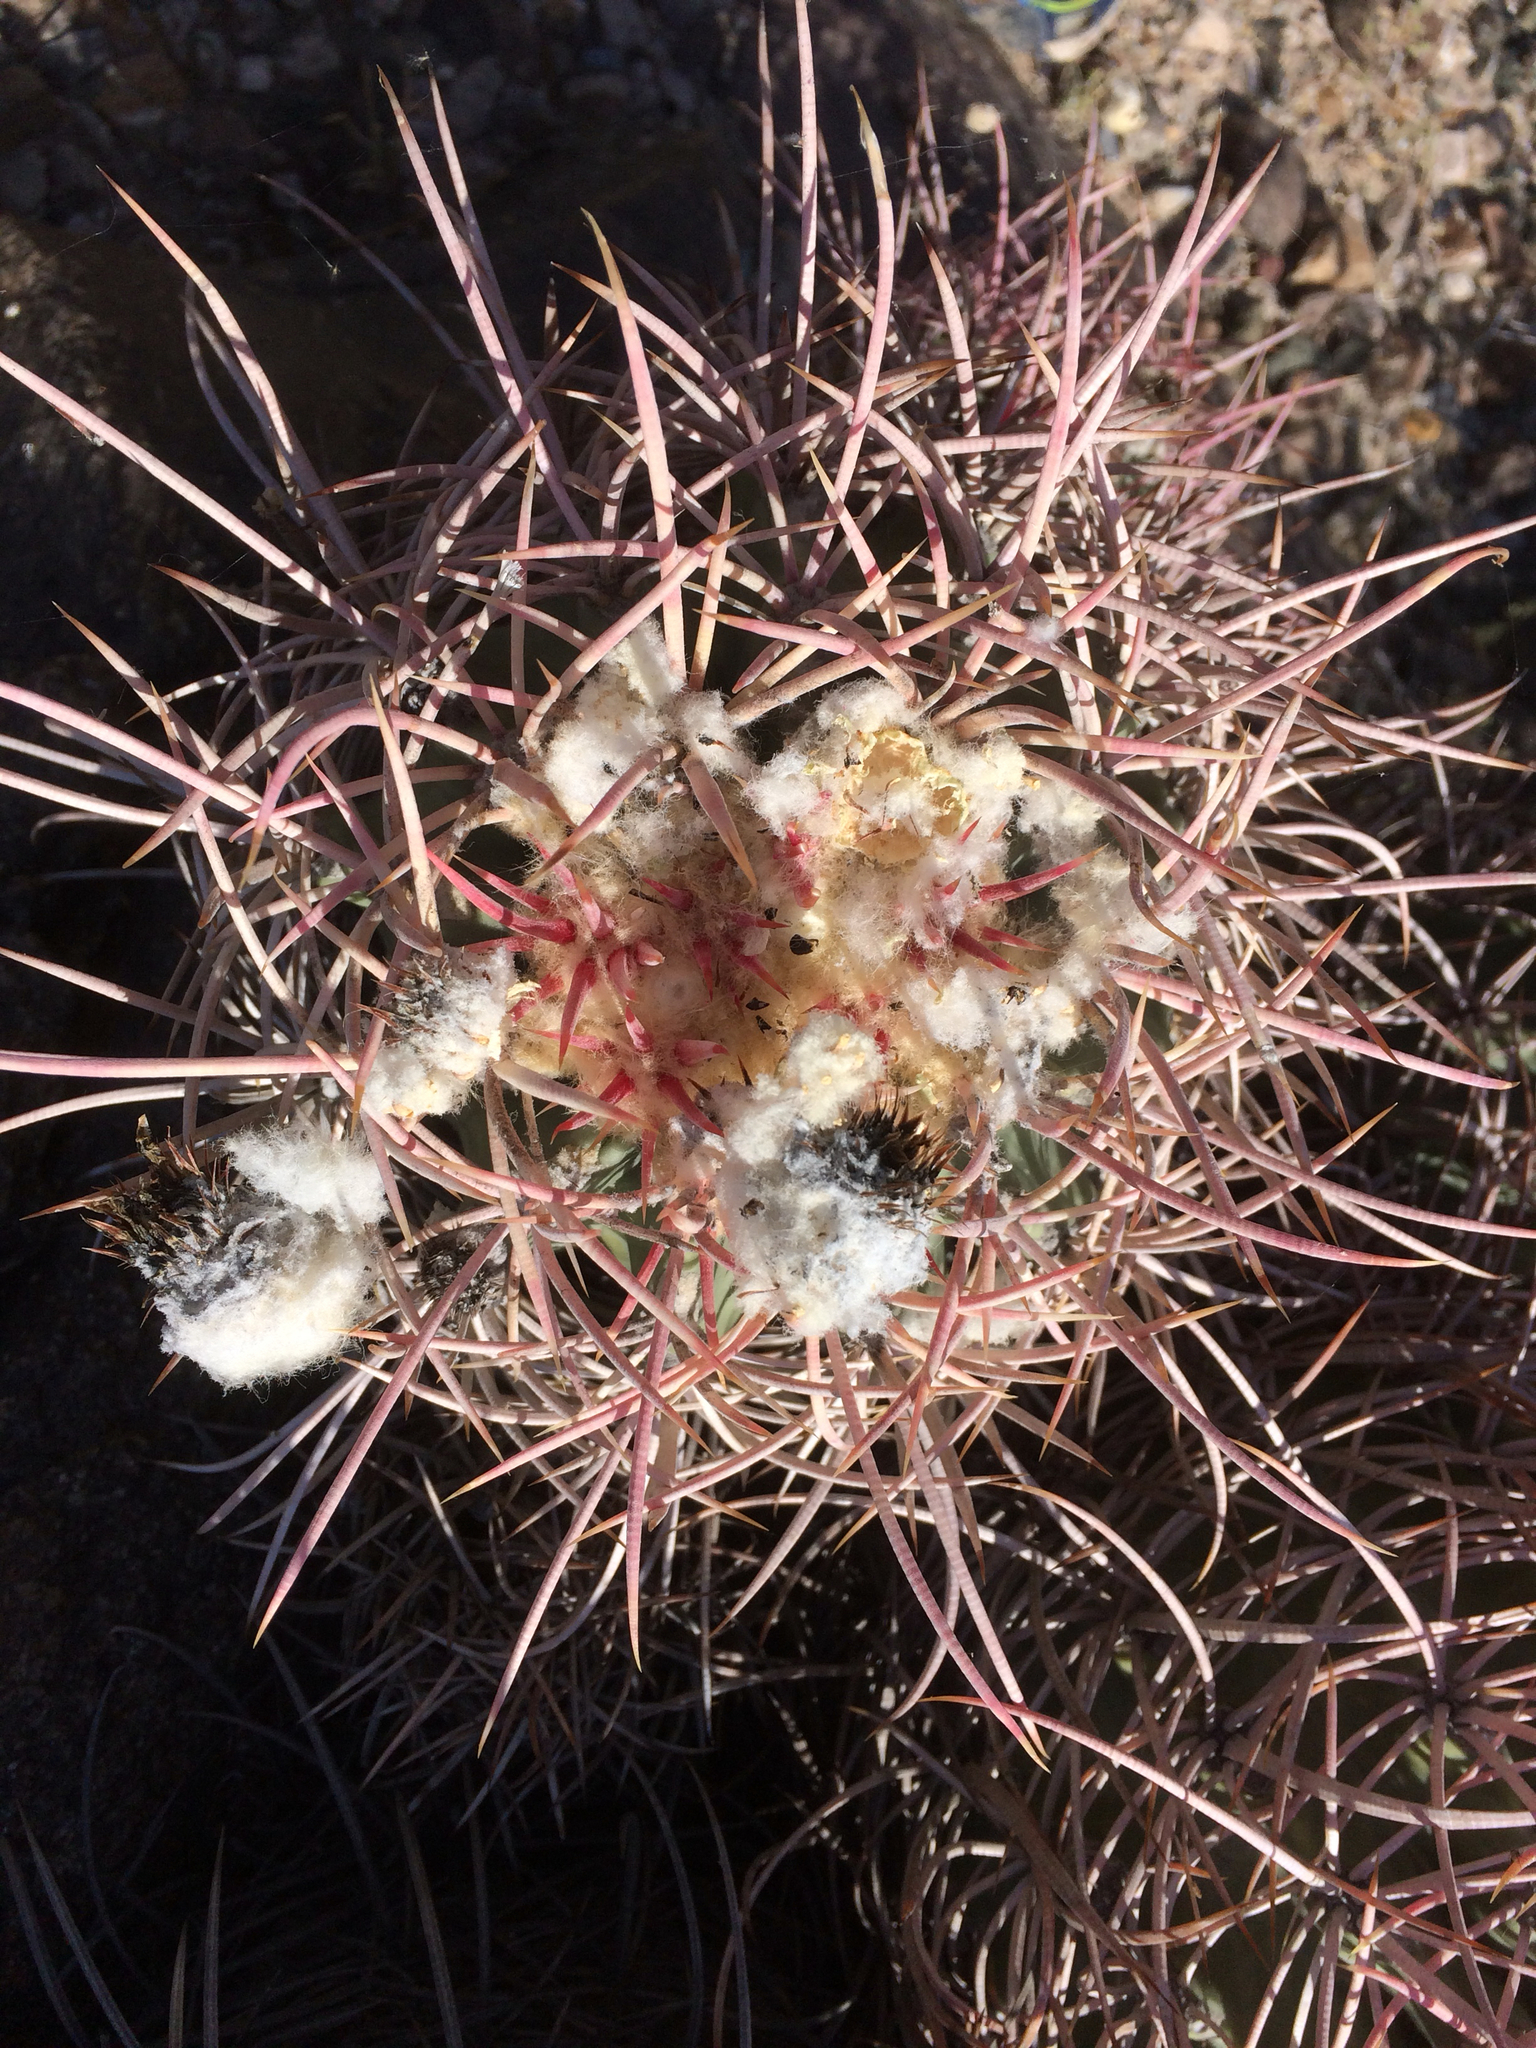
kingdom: Plantae
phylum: Tracheophyta
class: Magnoliopsida
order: Caryophyllales
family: Cactaceae
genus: Echinocactus
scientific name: Echinocactus polycephalus
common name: Cottontop cactus
